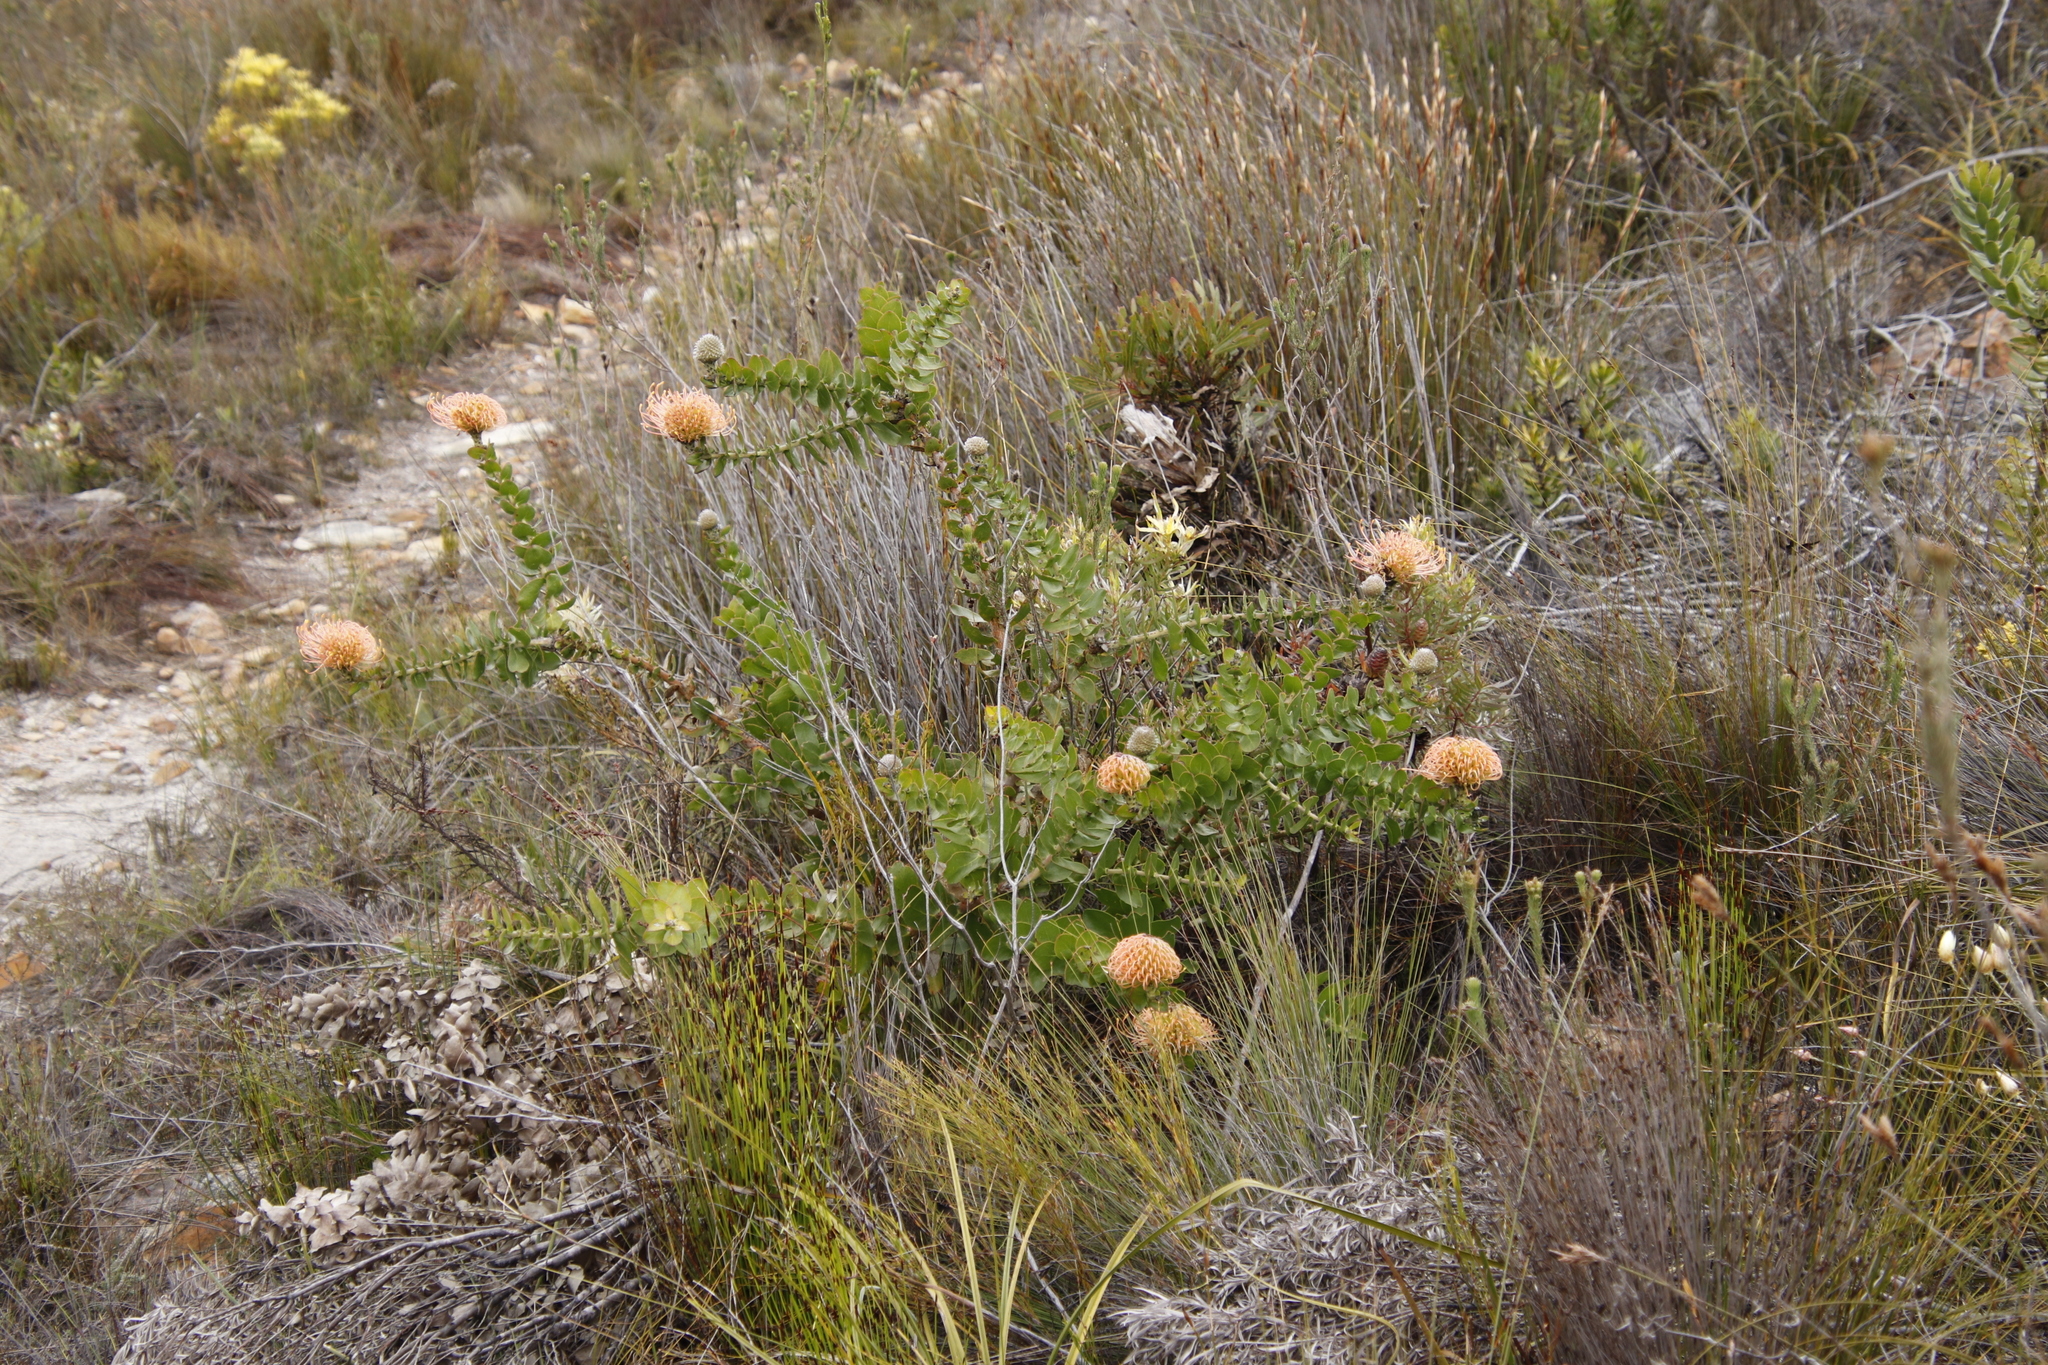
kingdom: Plantae
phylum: Tracheophyta
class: Magnoliopsida
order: Proteales
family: Proteaceae
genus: Leucospermum
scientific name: Leucospermum cordifolium
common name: Red pincushion-protea
